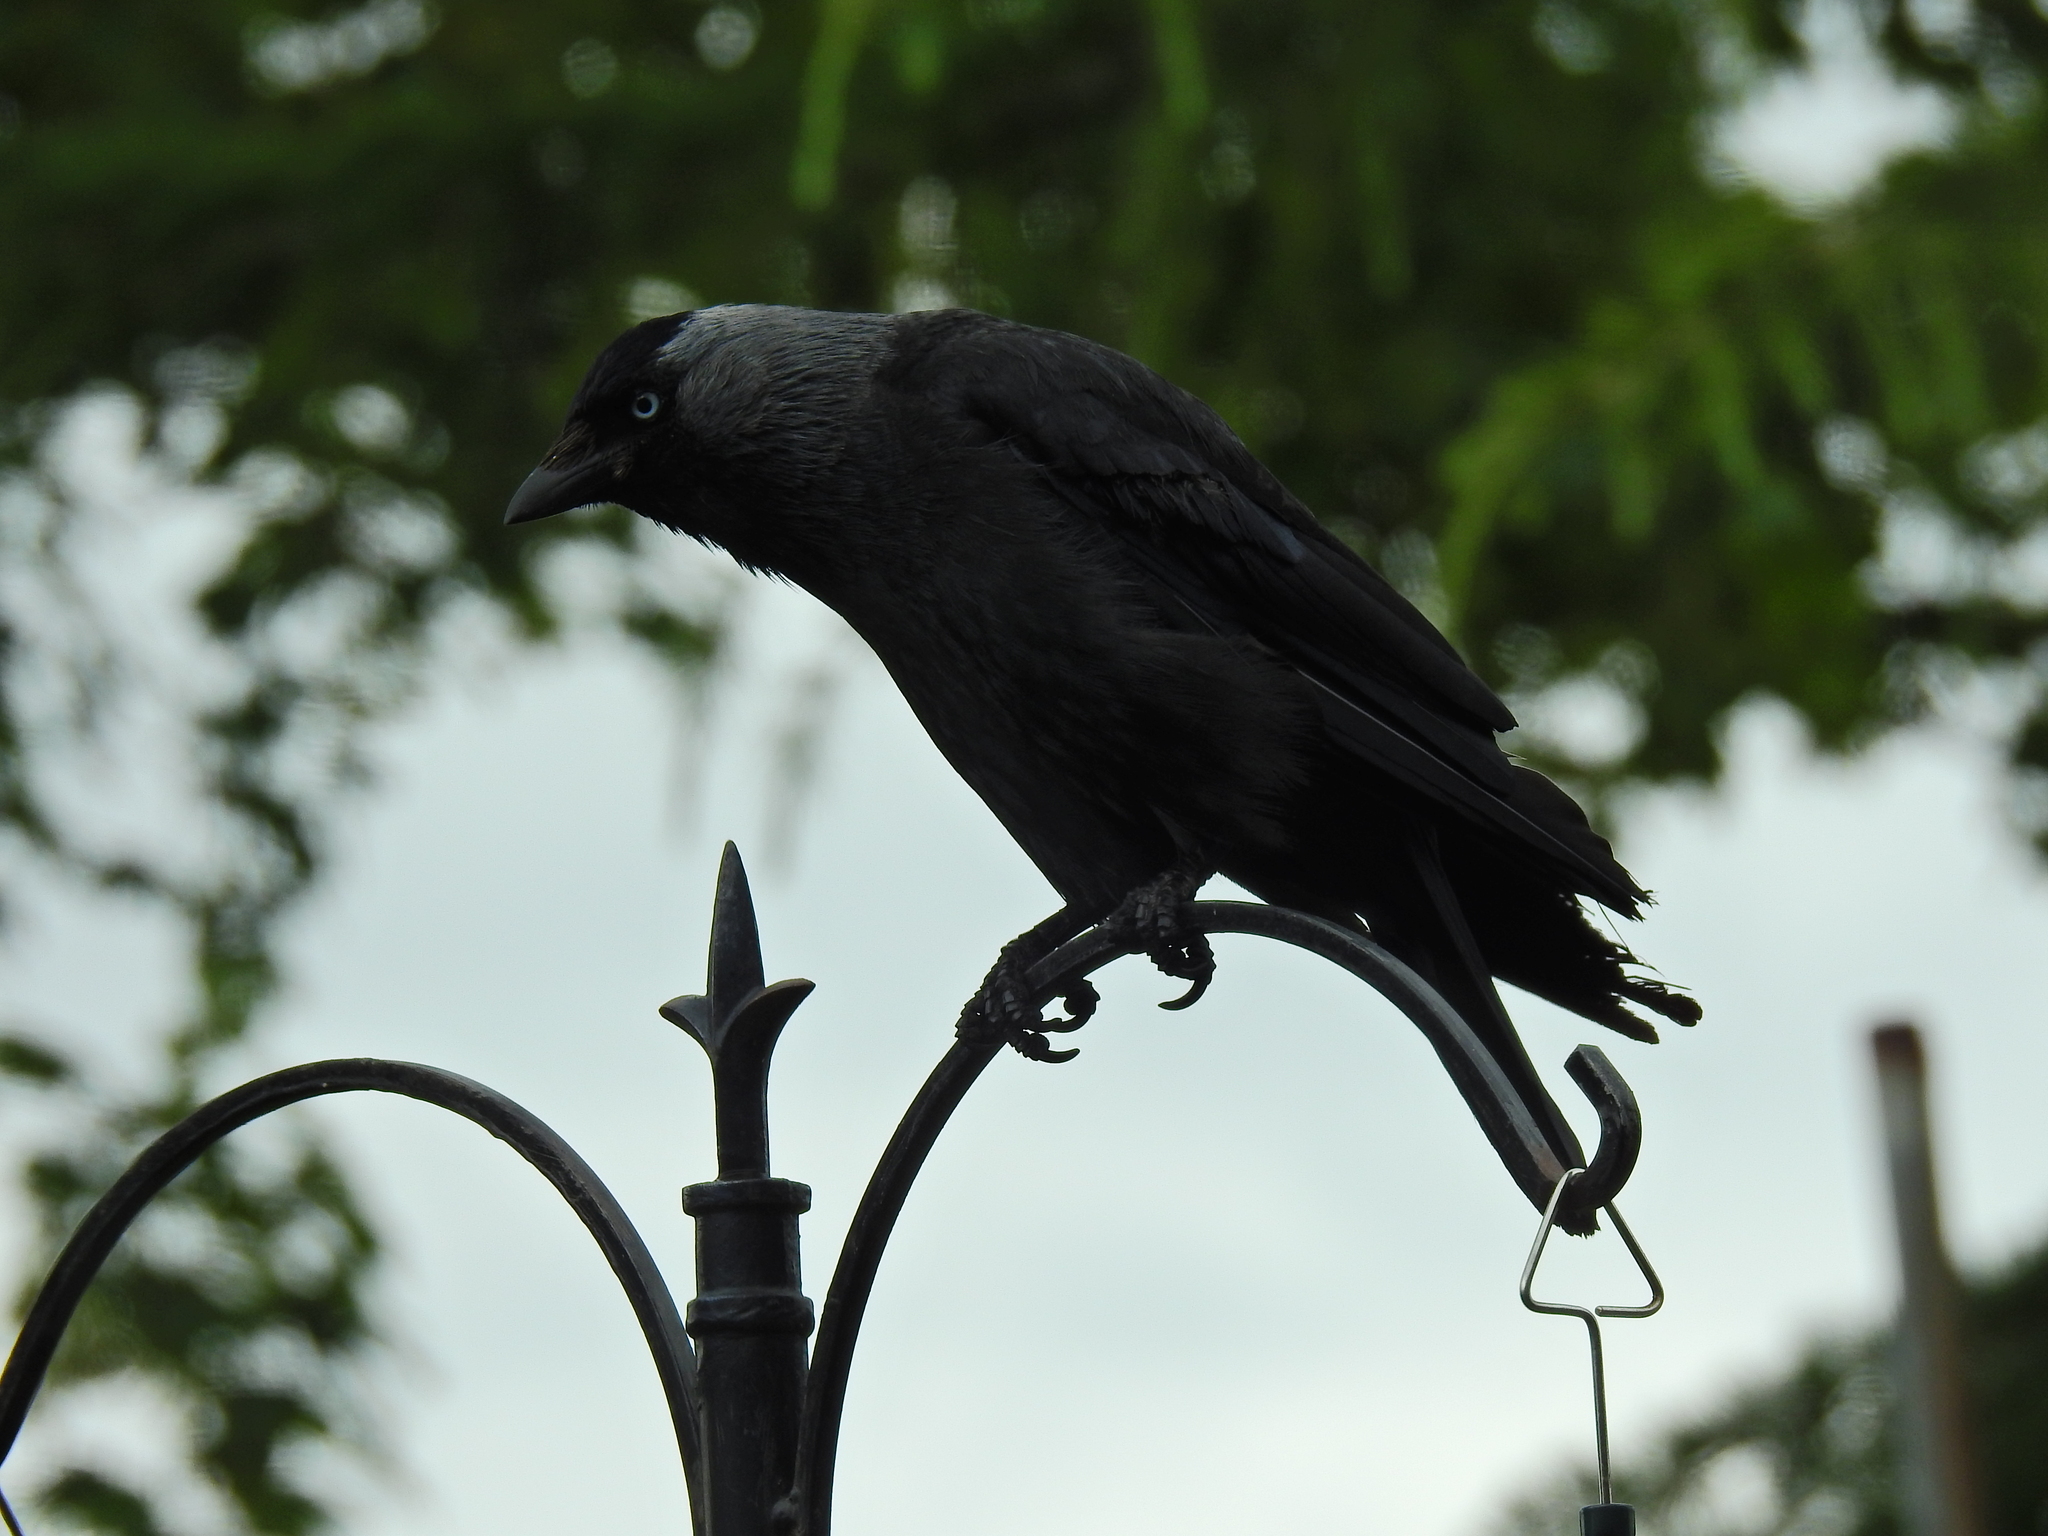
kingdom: Animalia
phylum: Chordata
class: Aves
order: Passeriformes
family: Corvidae
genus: Coloeus
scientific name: Coloeus monedula
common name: Western jackdaw
